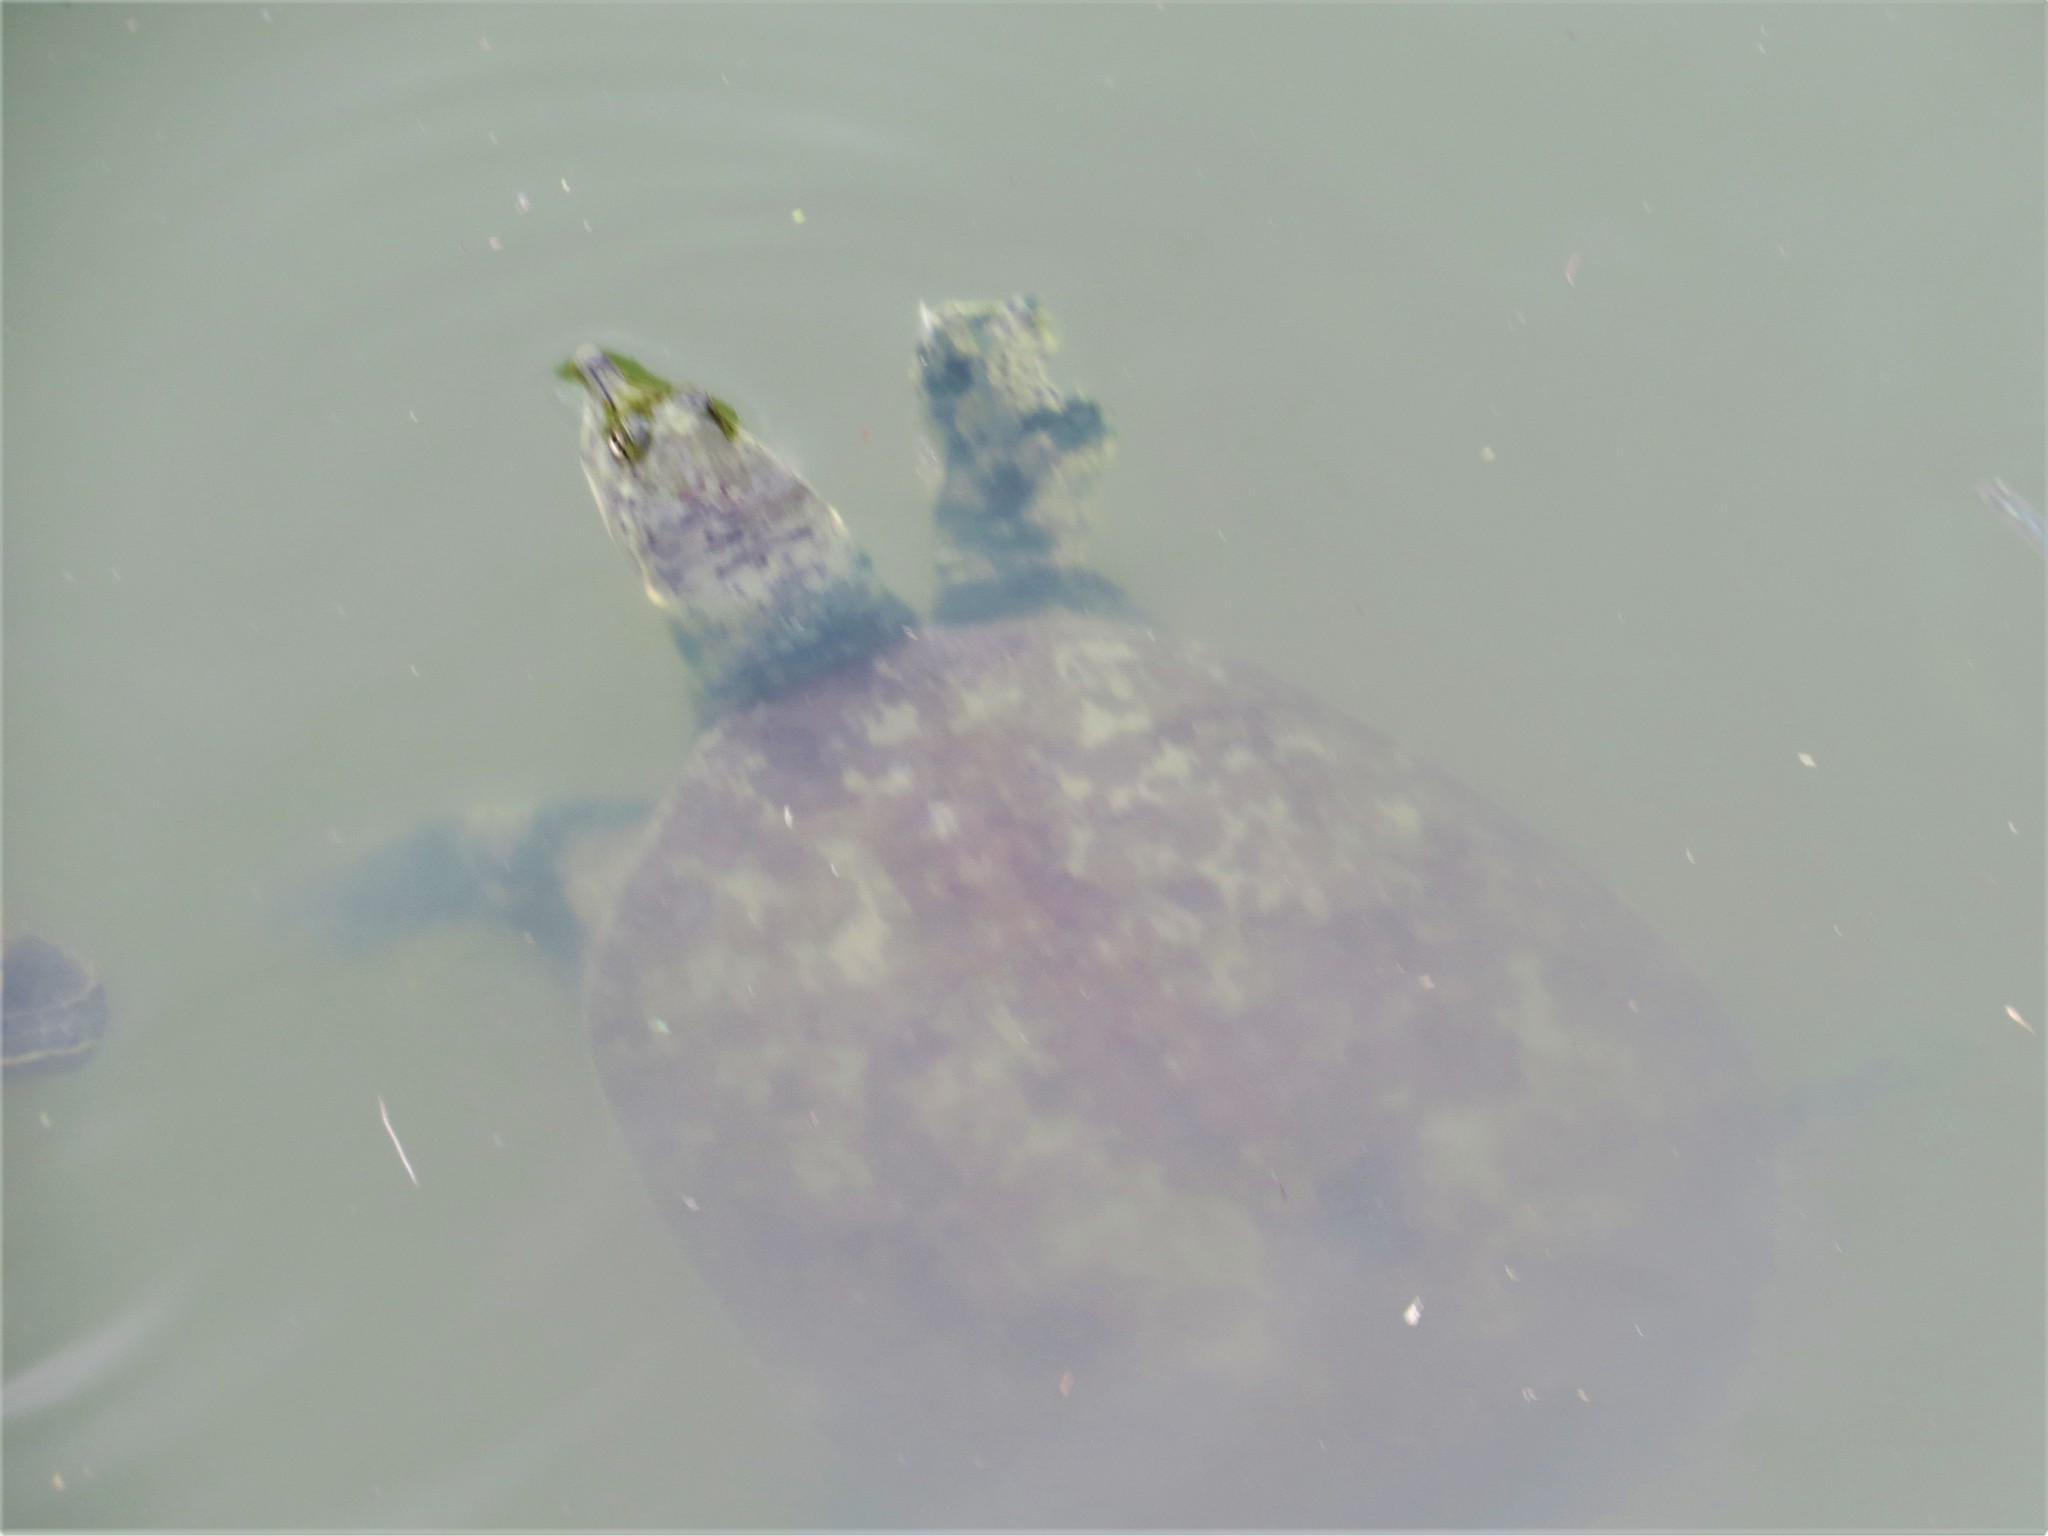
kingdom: Animalia
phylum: Chordata
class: Testudines
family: Trionychidae
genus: Apalone
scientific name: Apalone spinifera
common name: Spiny softshell turtle
